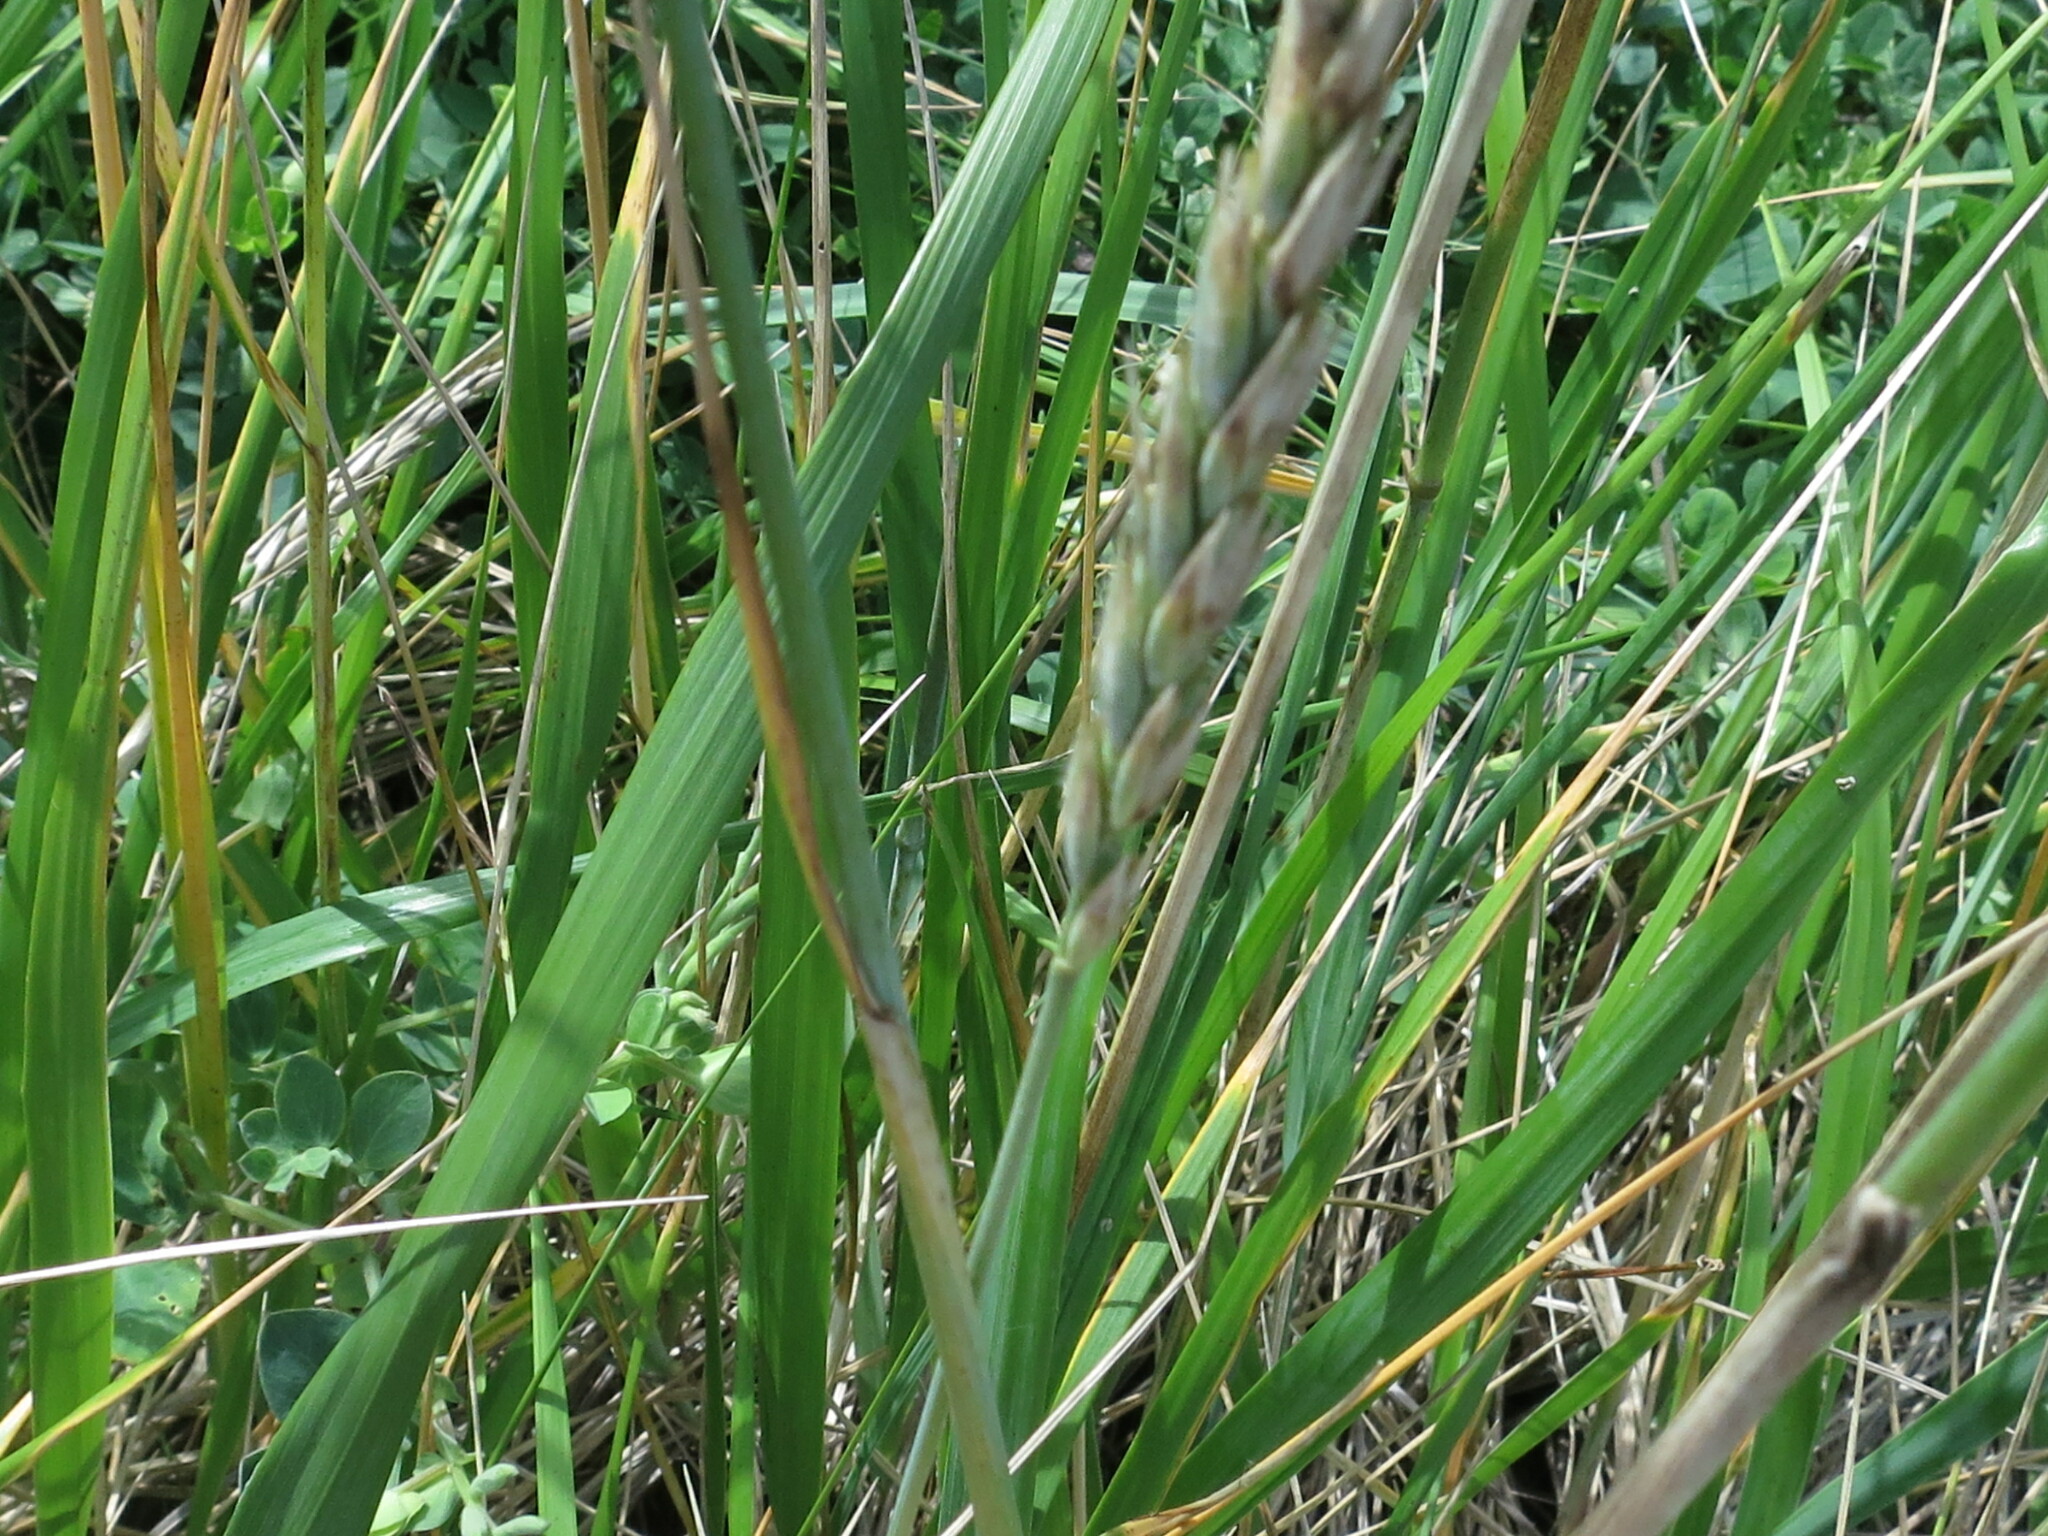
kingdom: Plantae
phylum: Tracheophyta
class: Liliopsida
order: Poales
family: Poaceae
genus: Leymus
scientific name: Leymus mollis
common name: American dune grass
